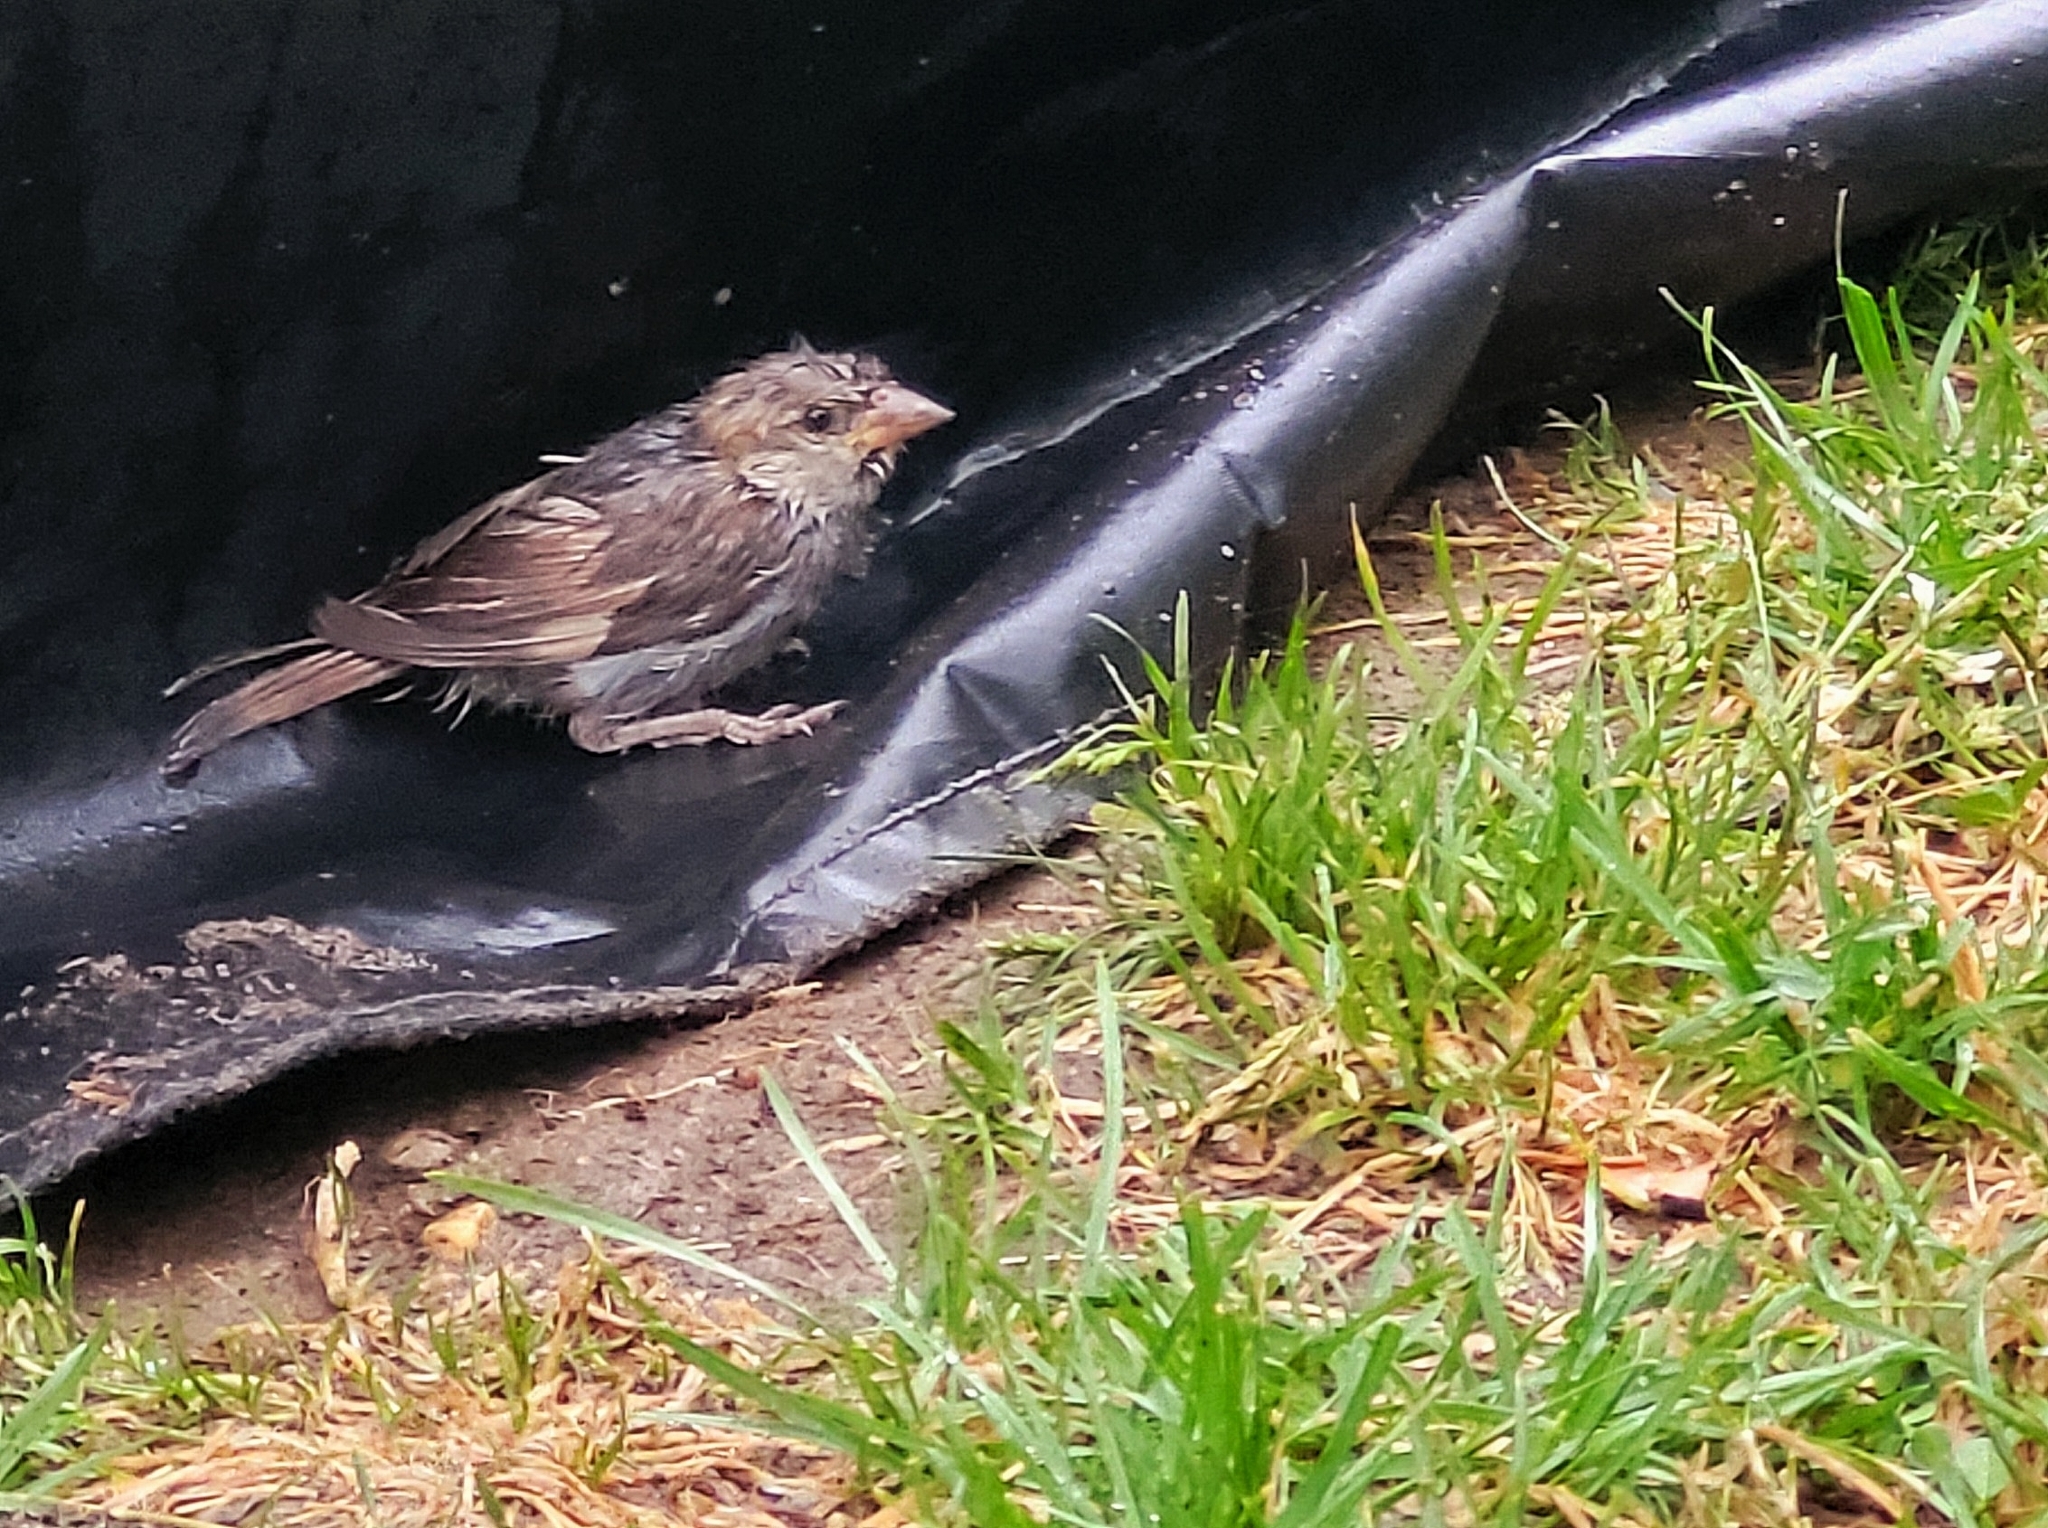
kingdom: Animalia
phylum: Chordata
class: Aves
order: Passeriformes
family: Passeridae
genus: Passer
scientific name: Passer domesticus
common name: House sparrow
